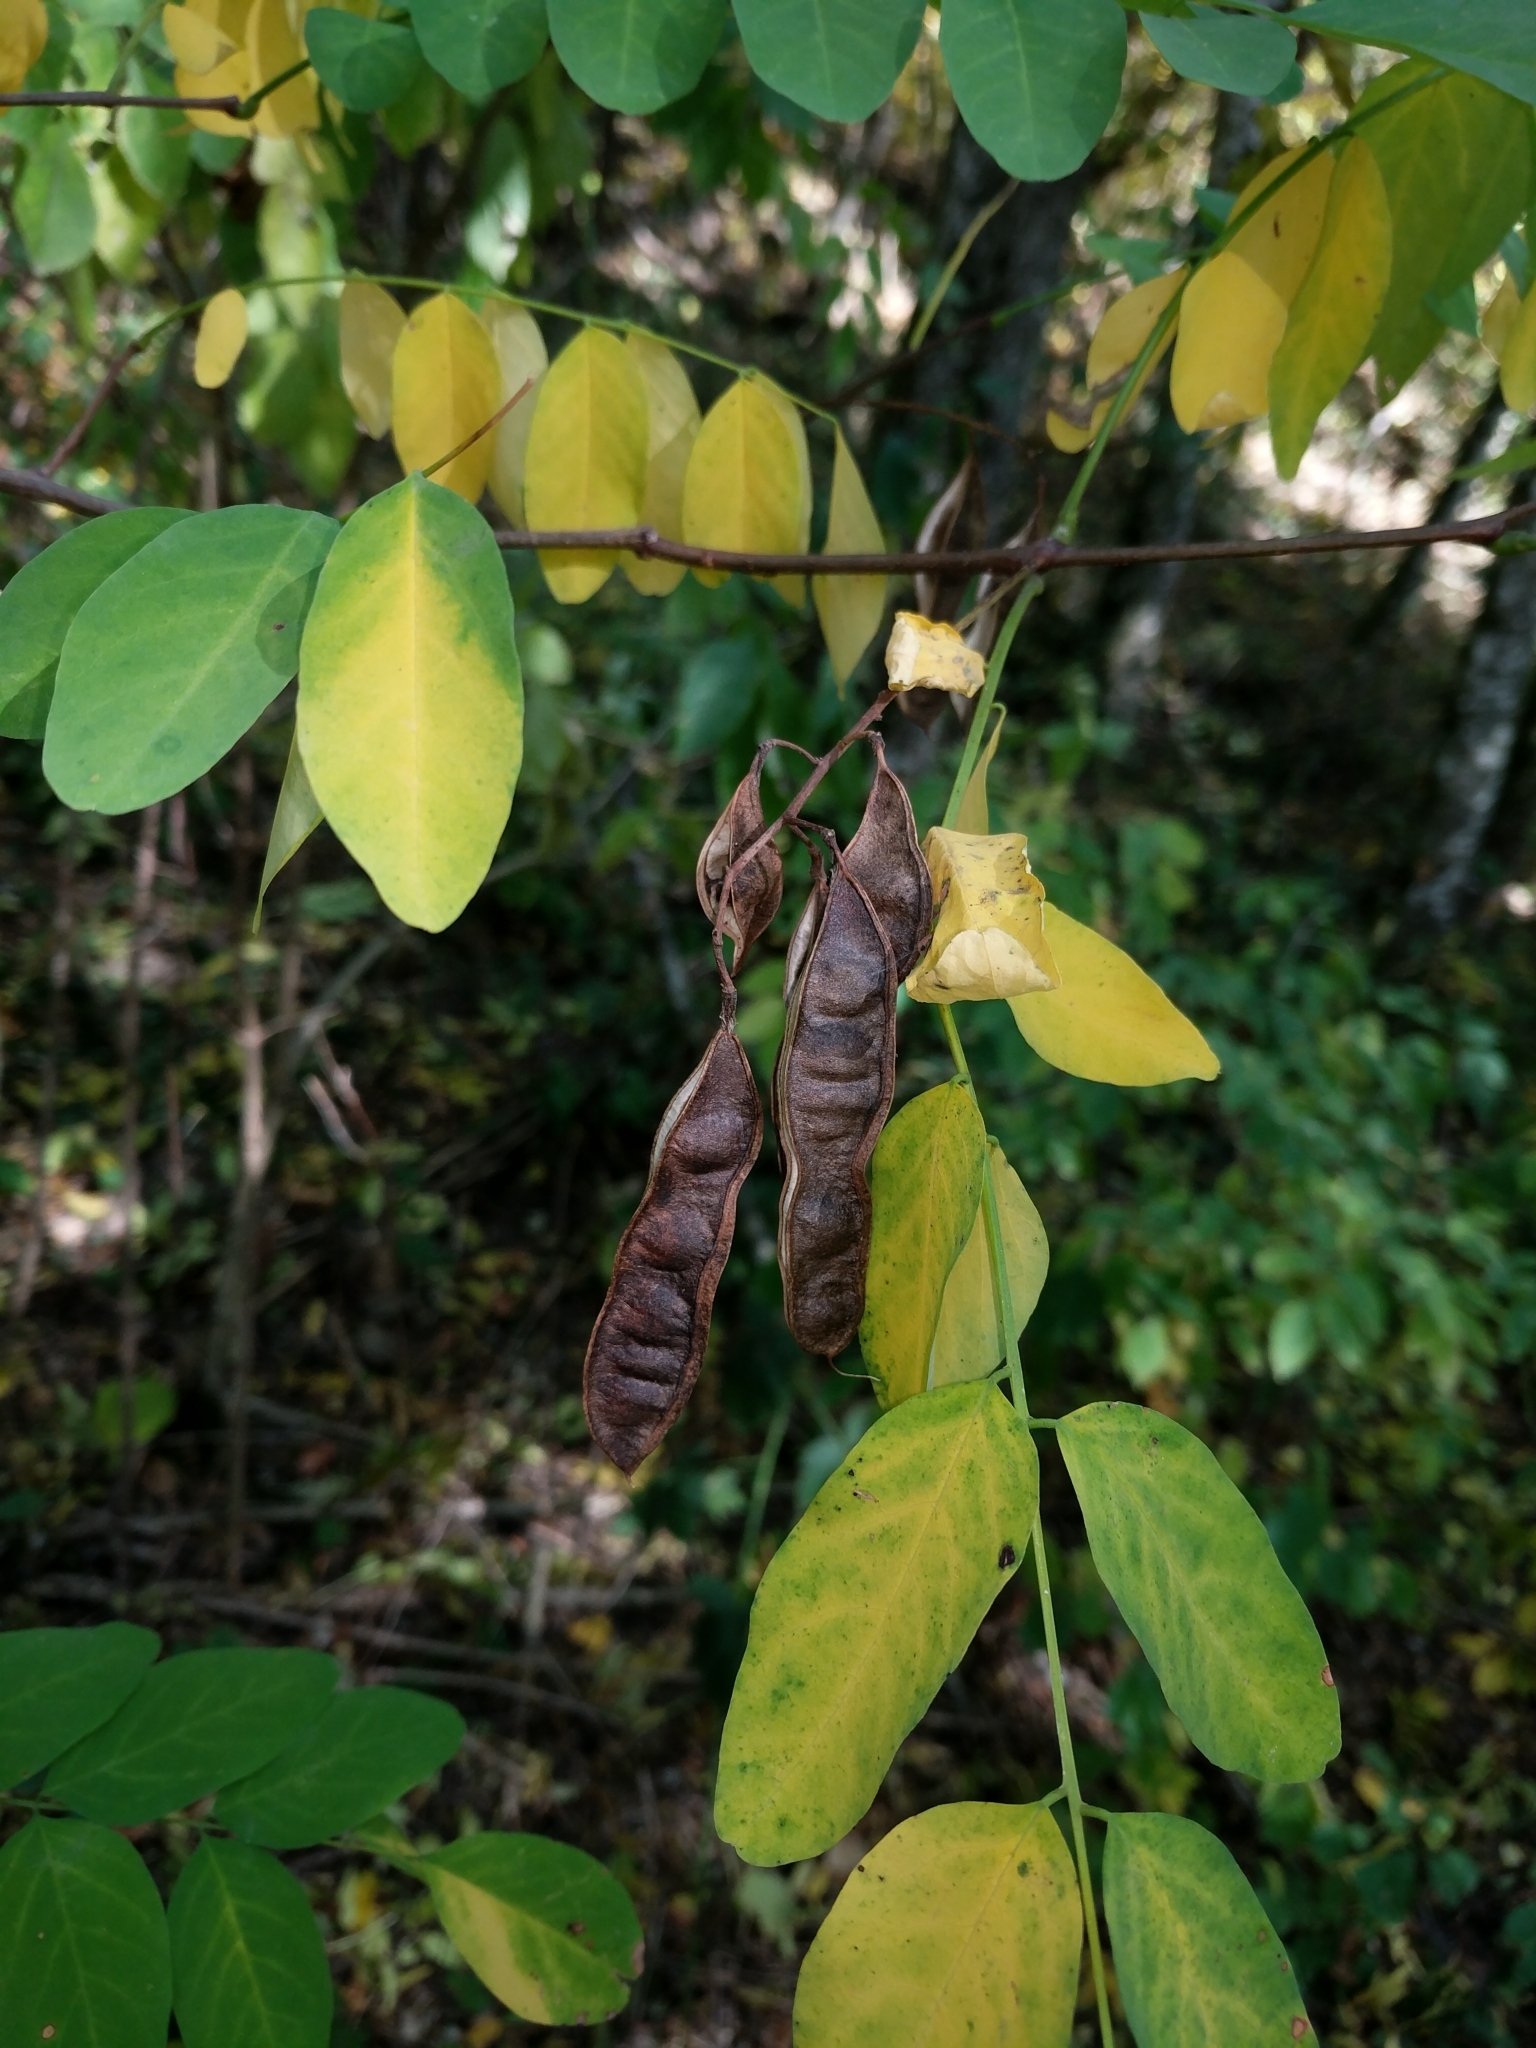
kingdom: Plantae
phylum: Tracheophyta
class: Magnoliopsida
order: Fabales
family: Fabaceae
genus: Robinia
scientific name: Robinia pseudoacacia
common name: Black locust
